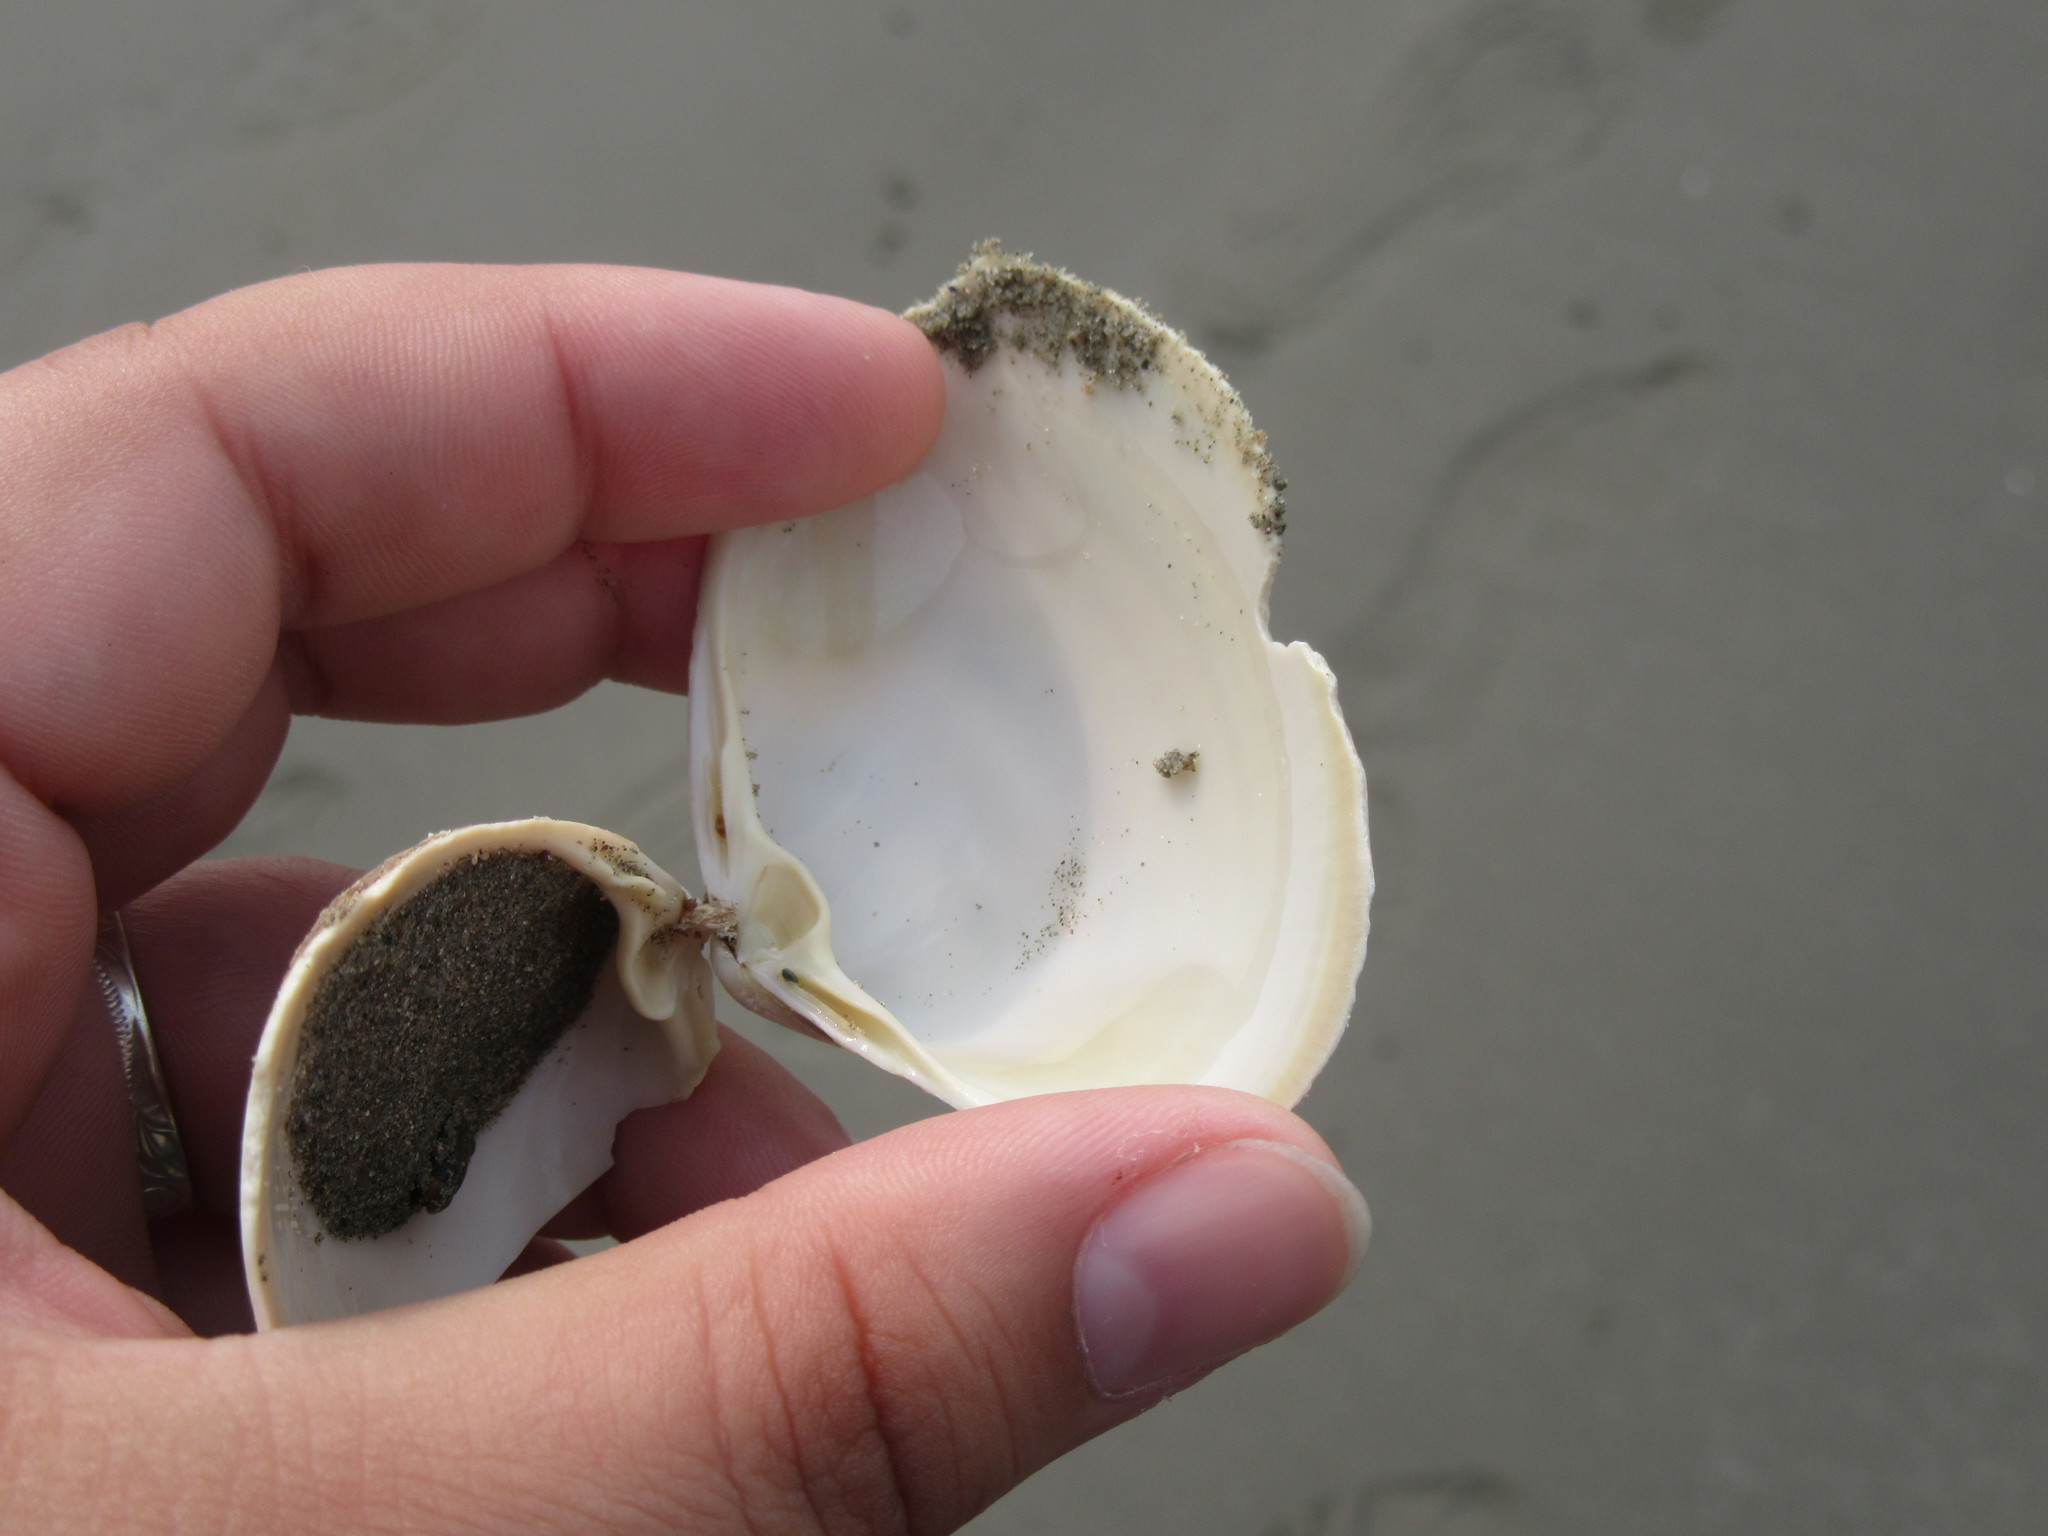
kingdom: Animalia
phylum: Mollusca
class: Bivalvia
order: Venerida
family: Mactridae
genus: Spisula
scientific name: Spisula solidissima
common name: Atlantic surf clam
